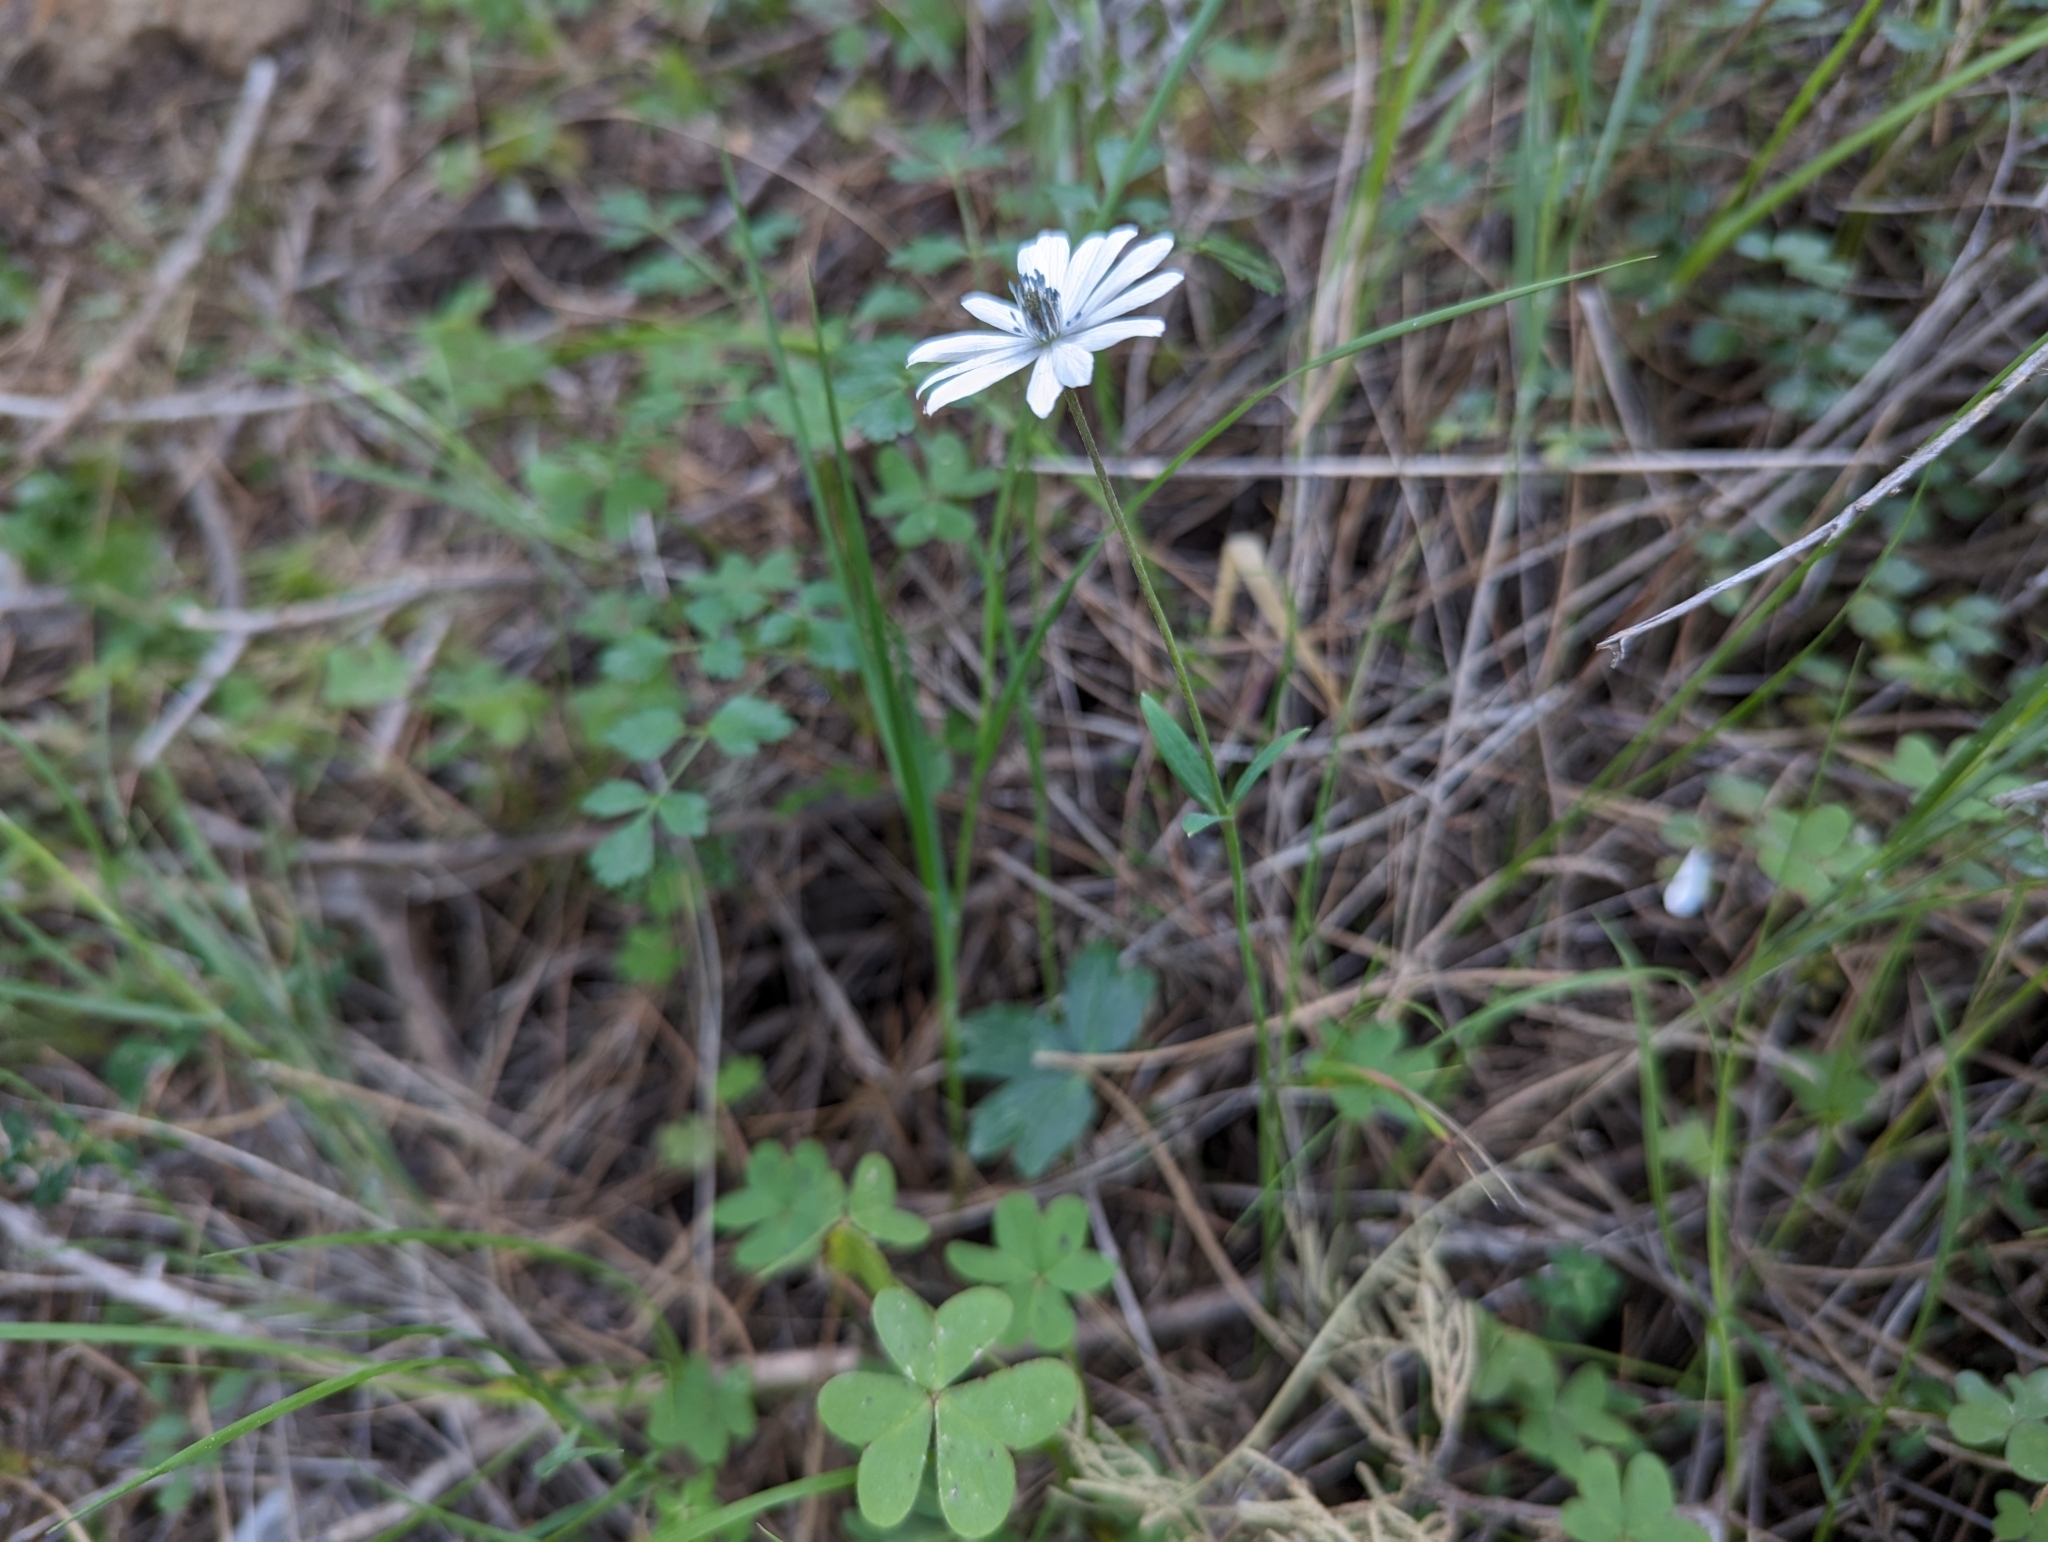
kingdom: Plantae
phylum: Tracheophyta
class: Magnoliopsida
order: Ranunculales
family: Ranunculaceae
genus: Anemone
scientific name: Anemone hortensis
